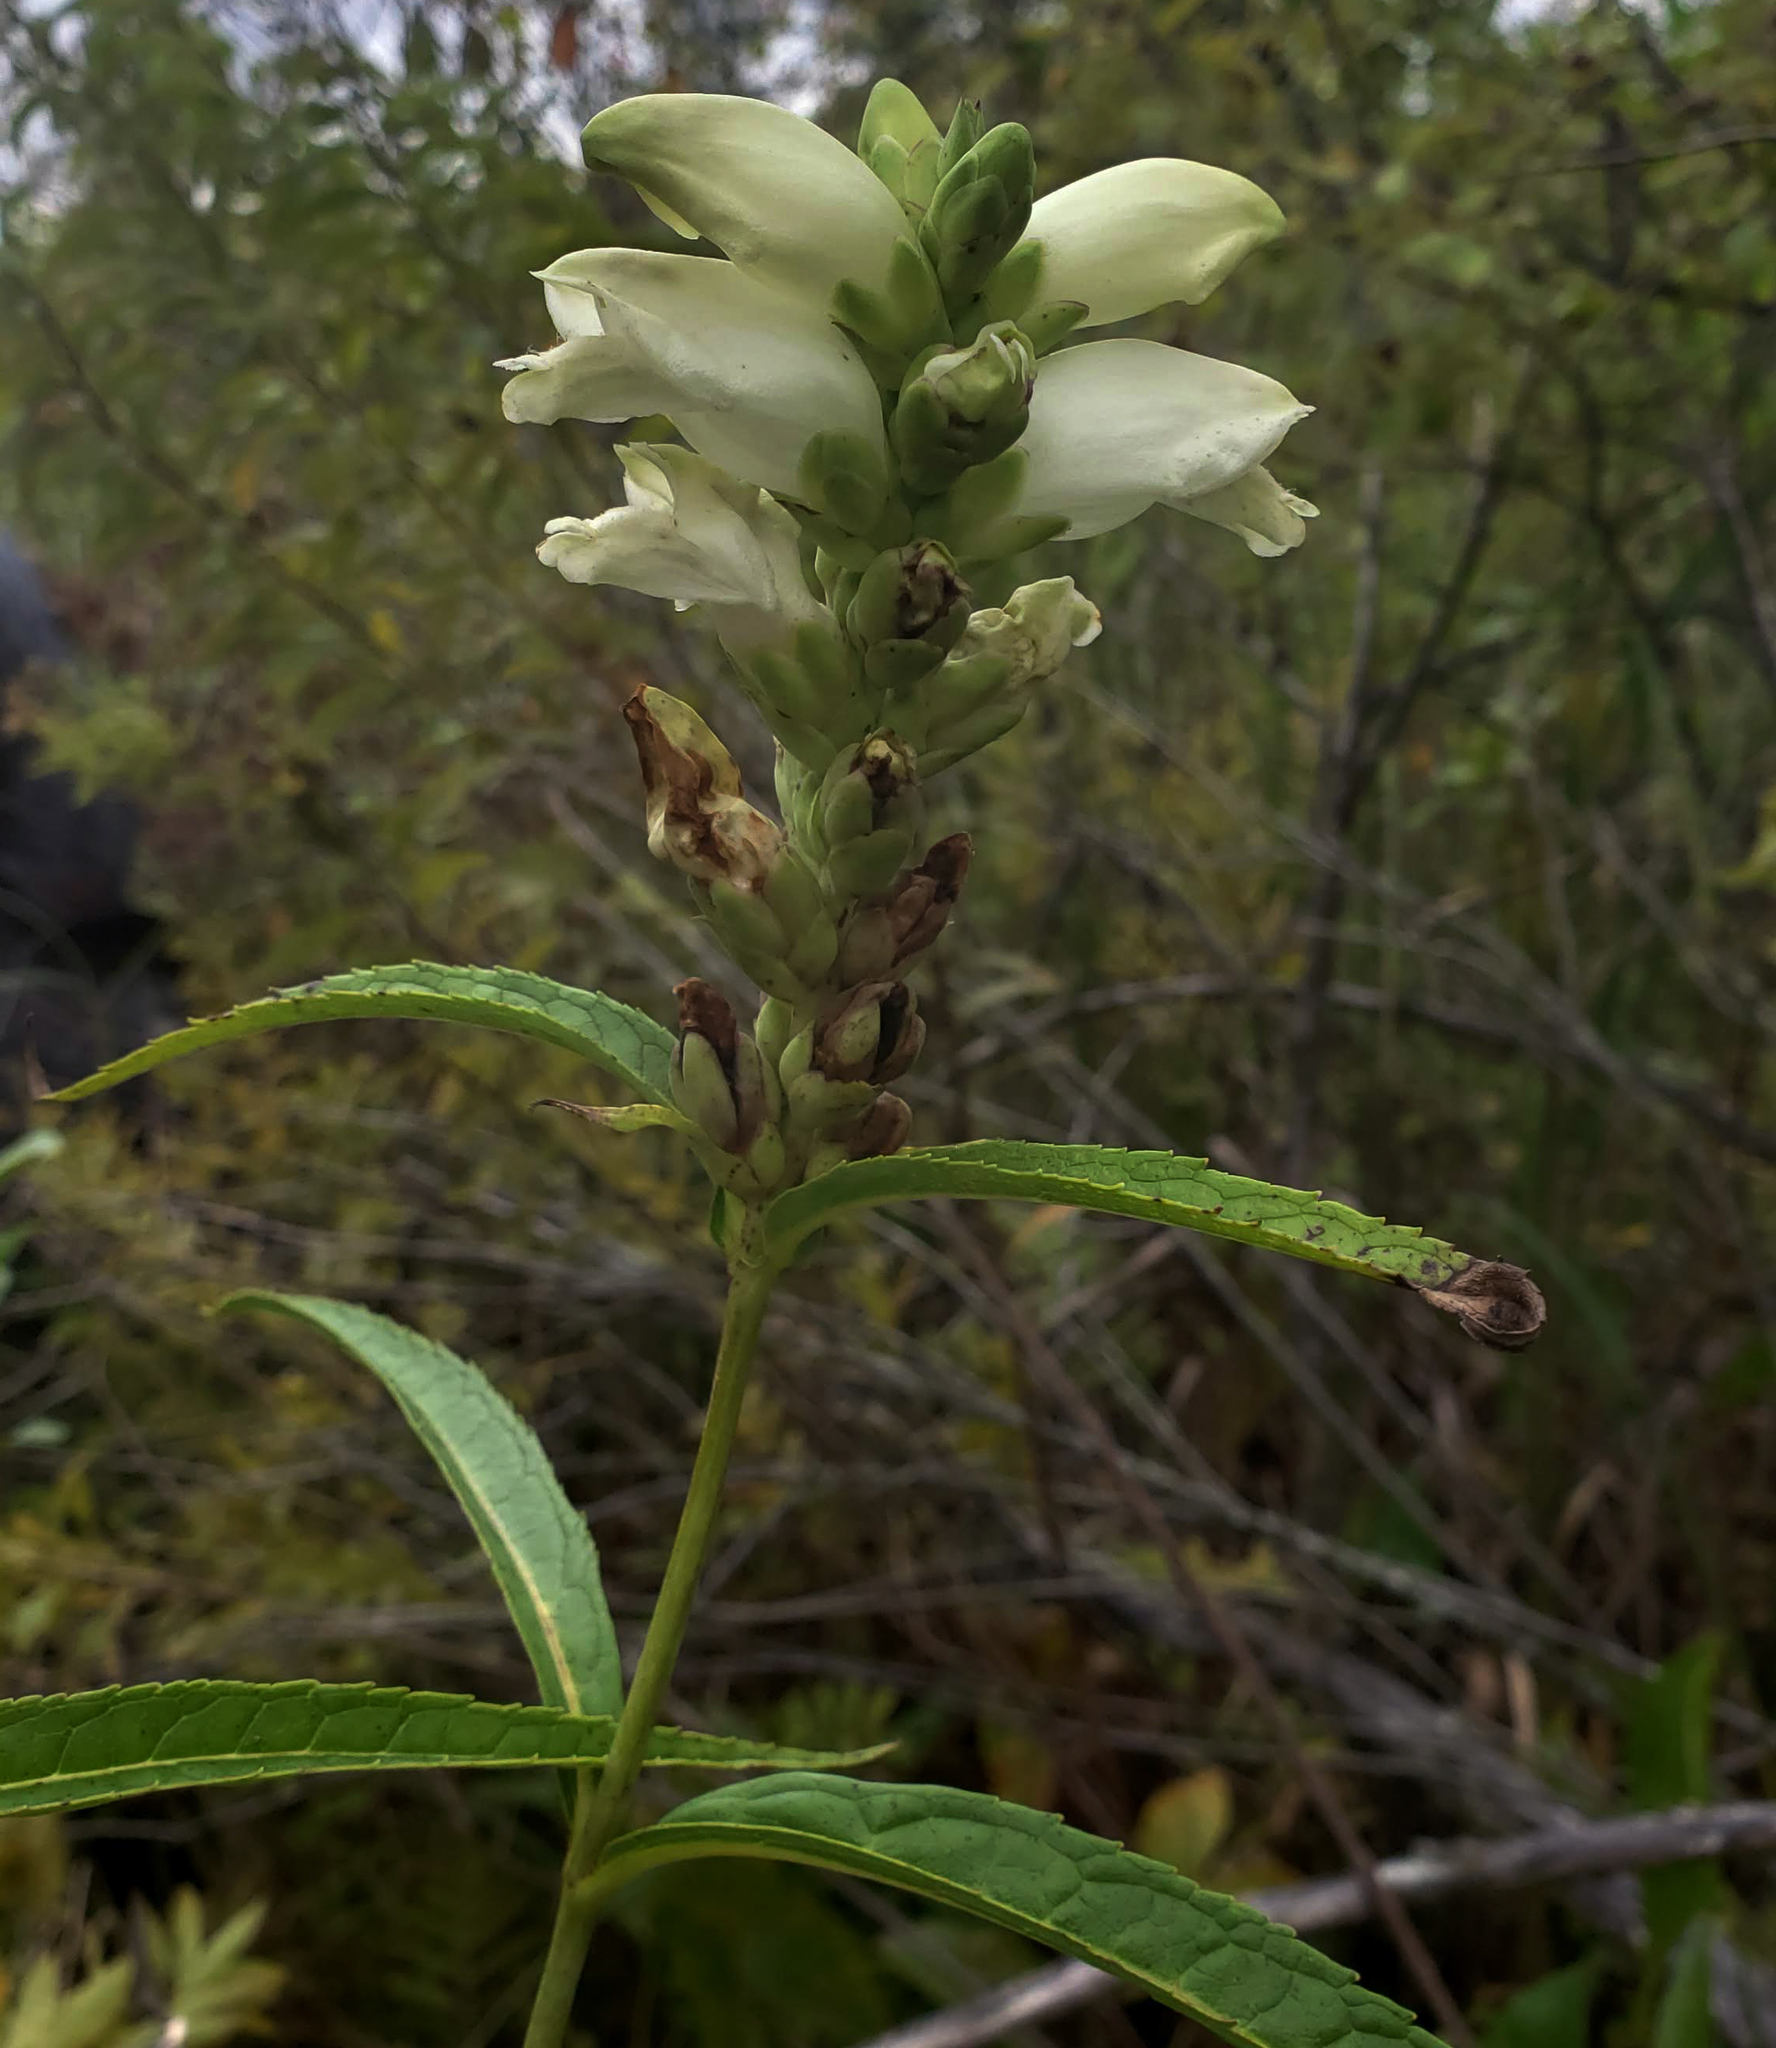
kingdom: Plantae
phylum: Tracheophyta
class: Magnoliopsida
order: Lamiales
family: Plantaginaceae
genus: Chelone
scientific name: Chelone glabra
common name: Snakehead
